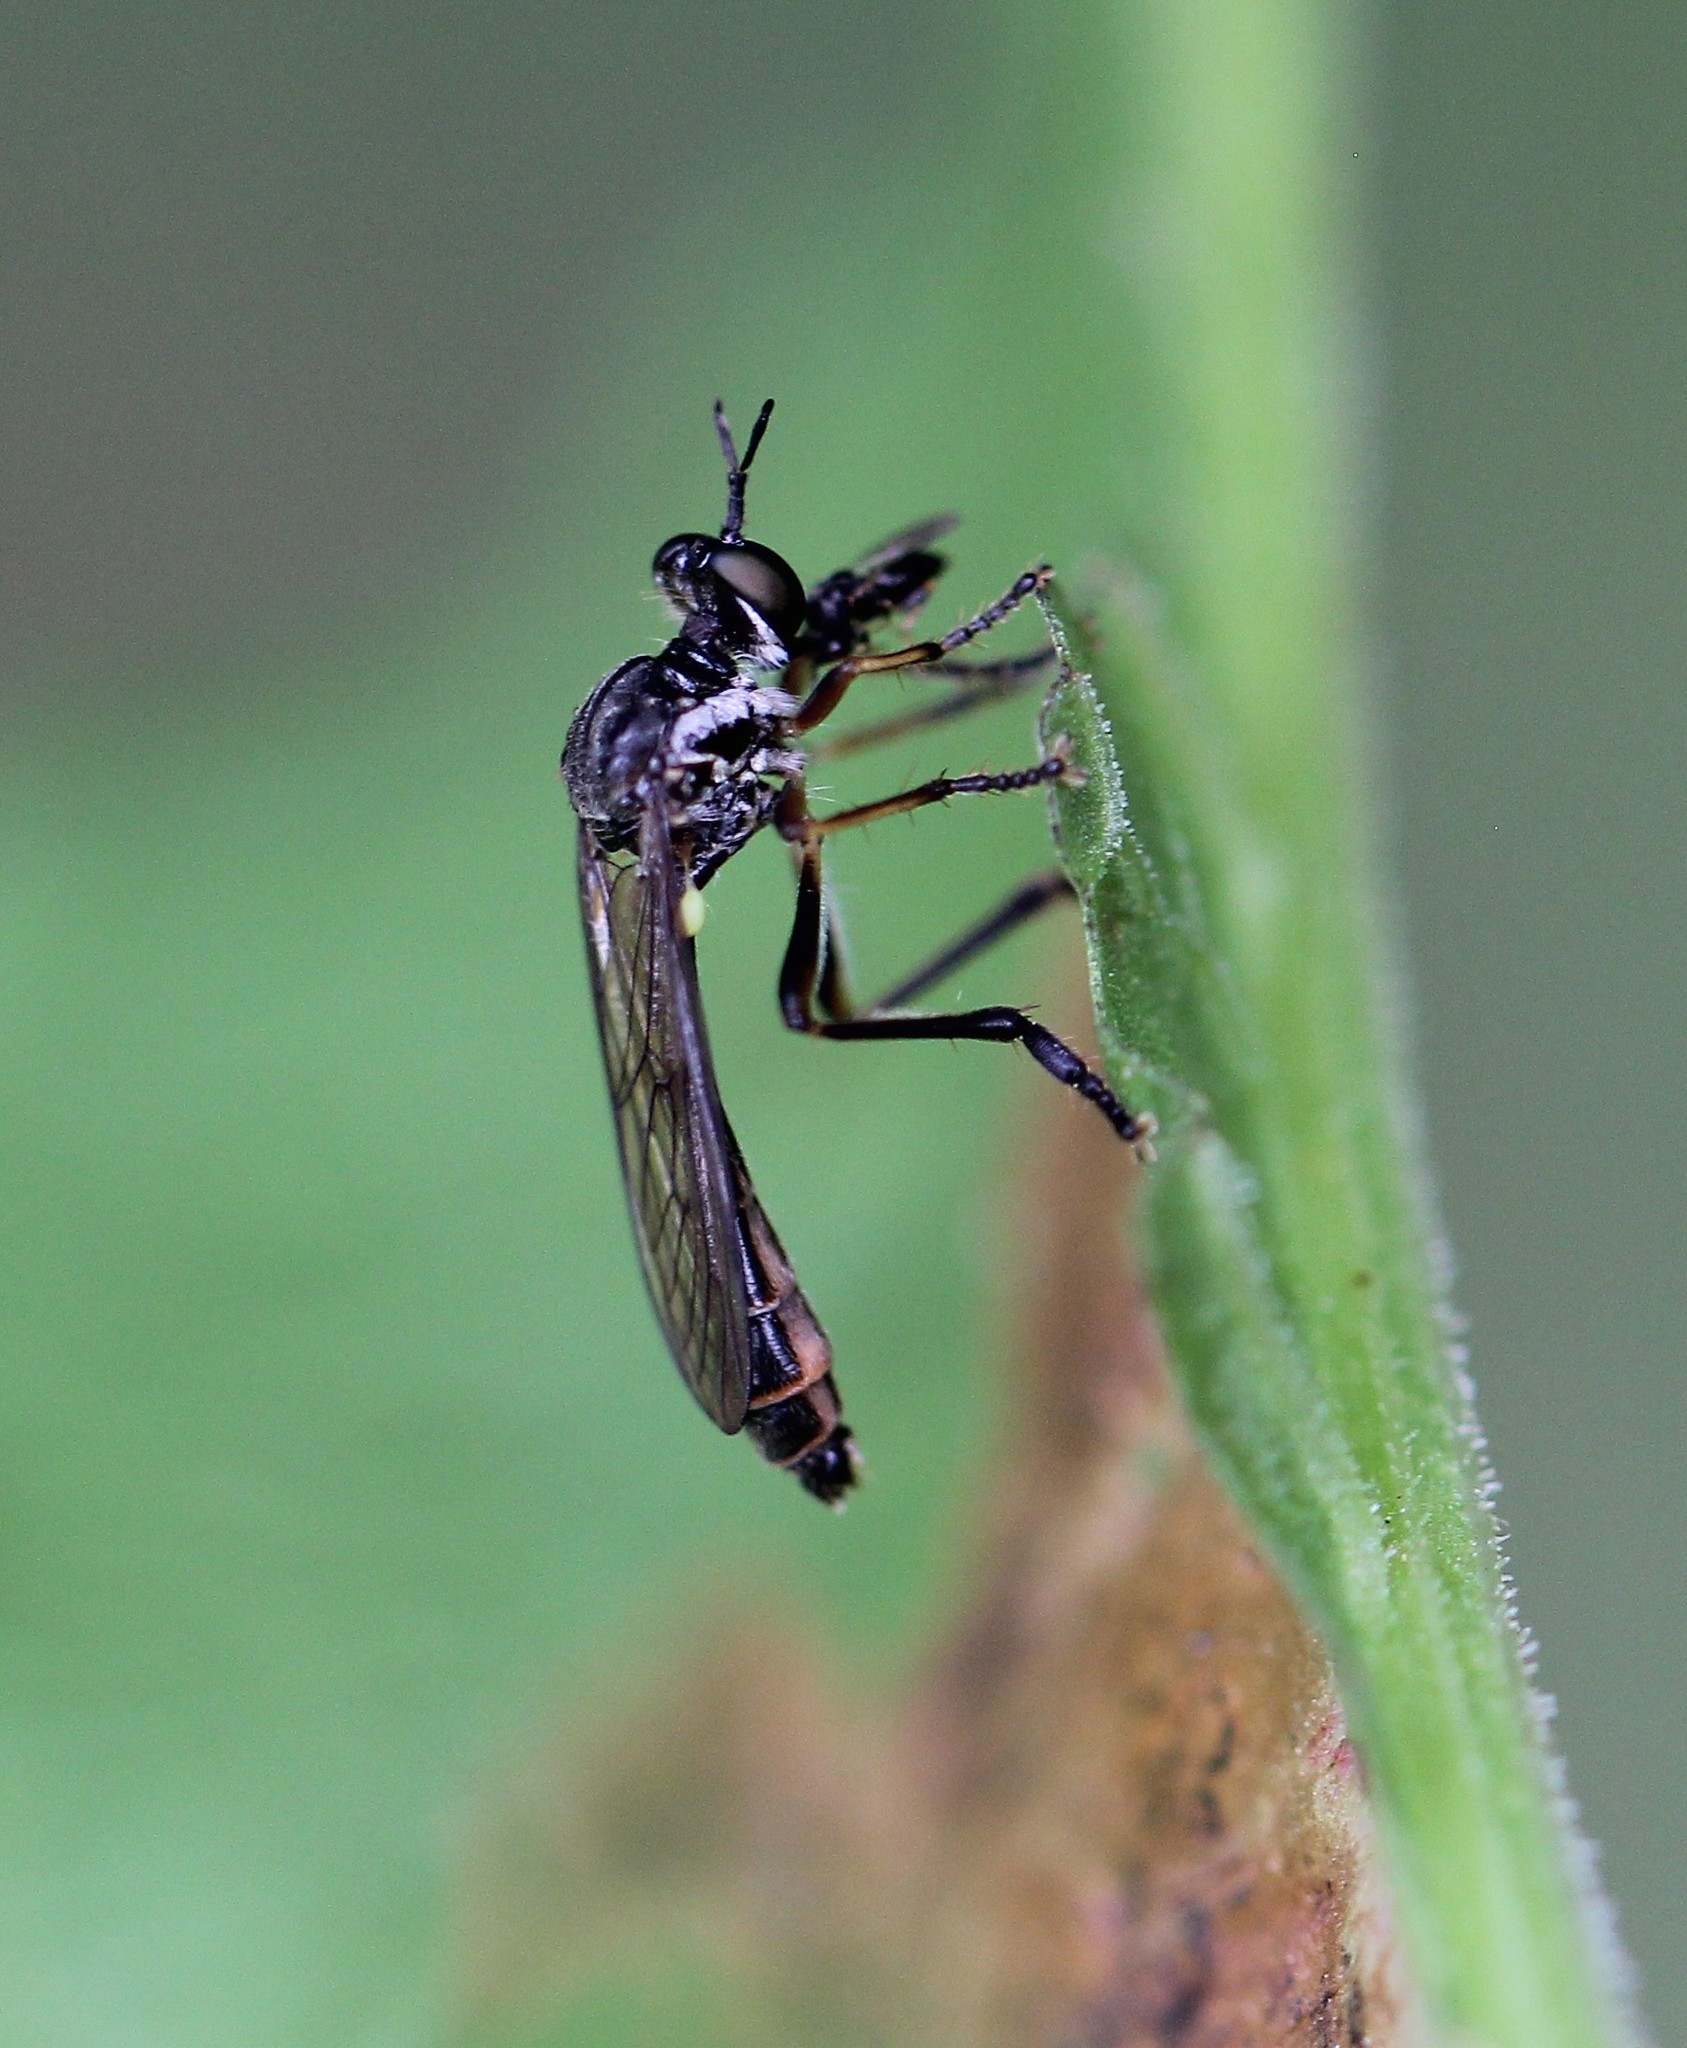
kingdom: Animalia
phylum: Arthropoda
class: Insecta
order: Diptera
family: Asilidae
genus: Dioctria
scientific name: Dioctria hyalipennis
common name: Stripe-legged robberfly
